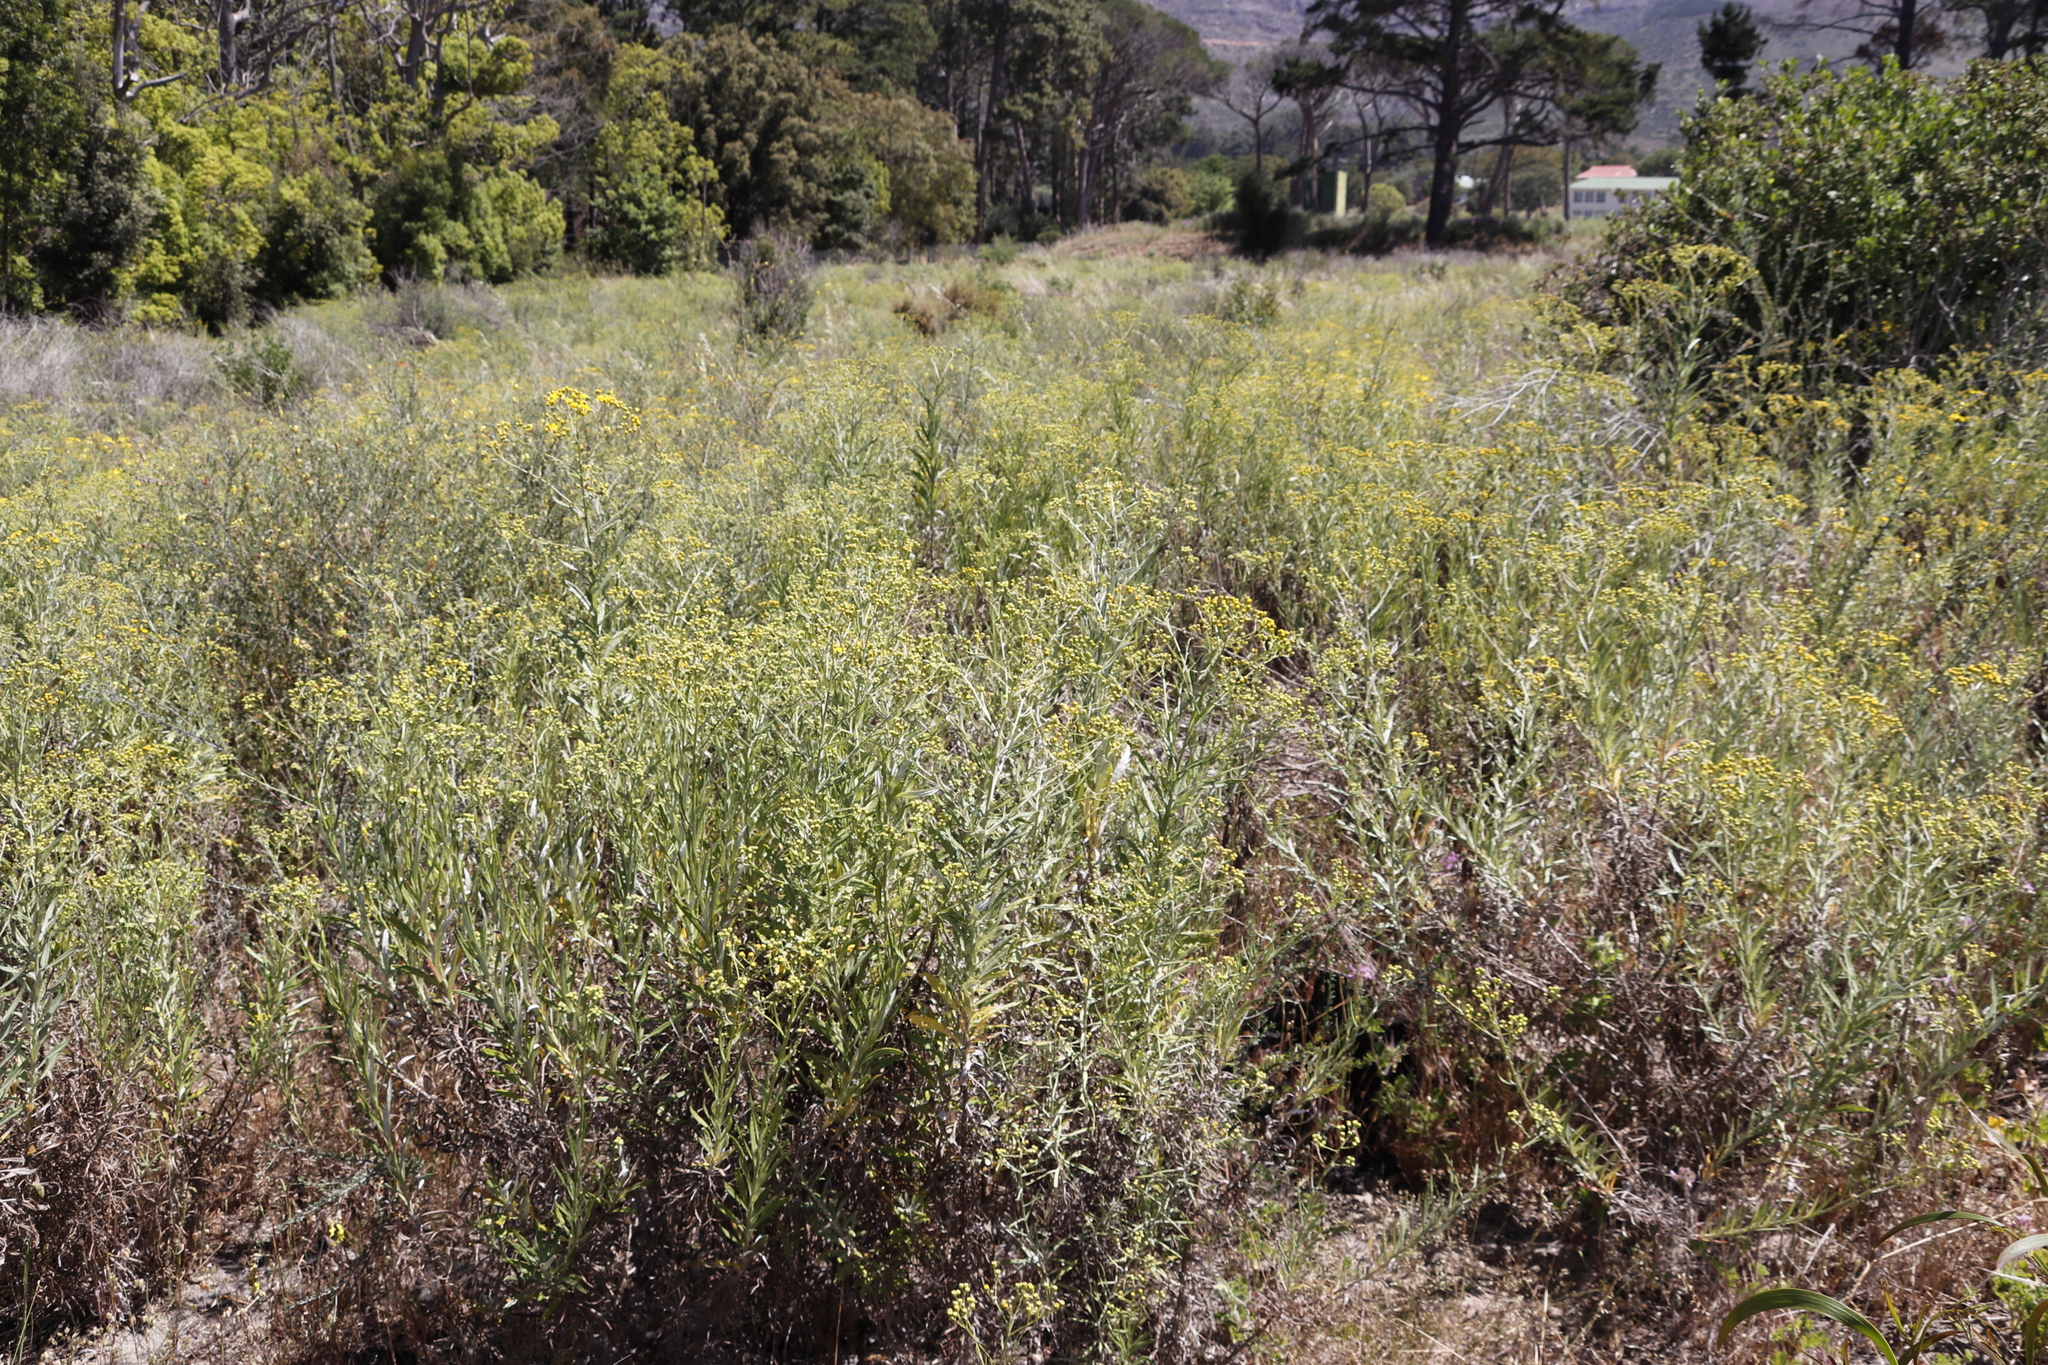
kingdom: Plantae
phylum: Tracheophyta
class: Magnoliopsida
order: Asterales
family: Asteraceae
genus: Senecio
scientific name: Senecio pterophorus
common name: Shoddy ragwort
